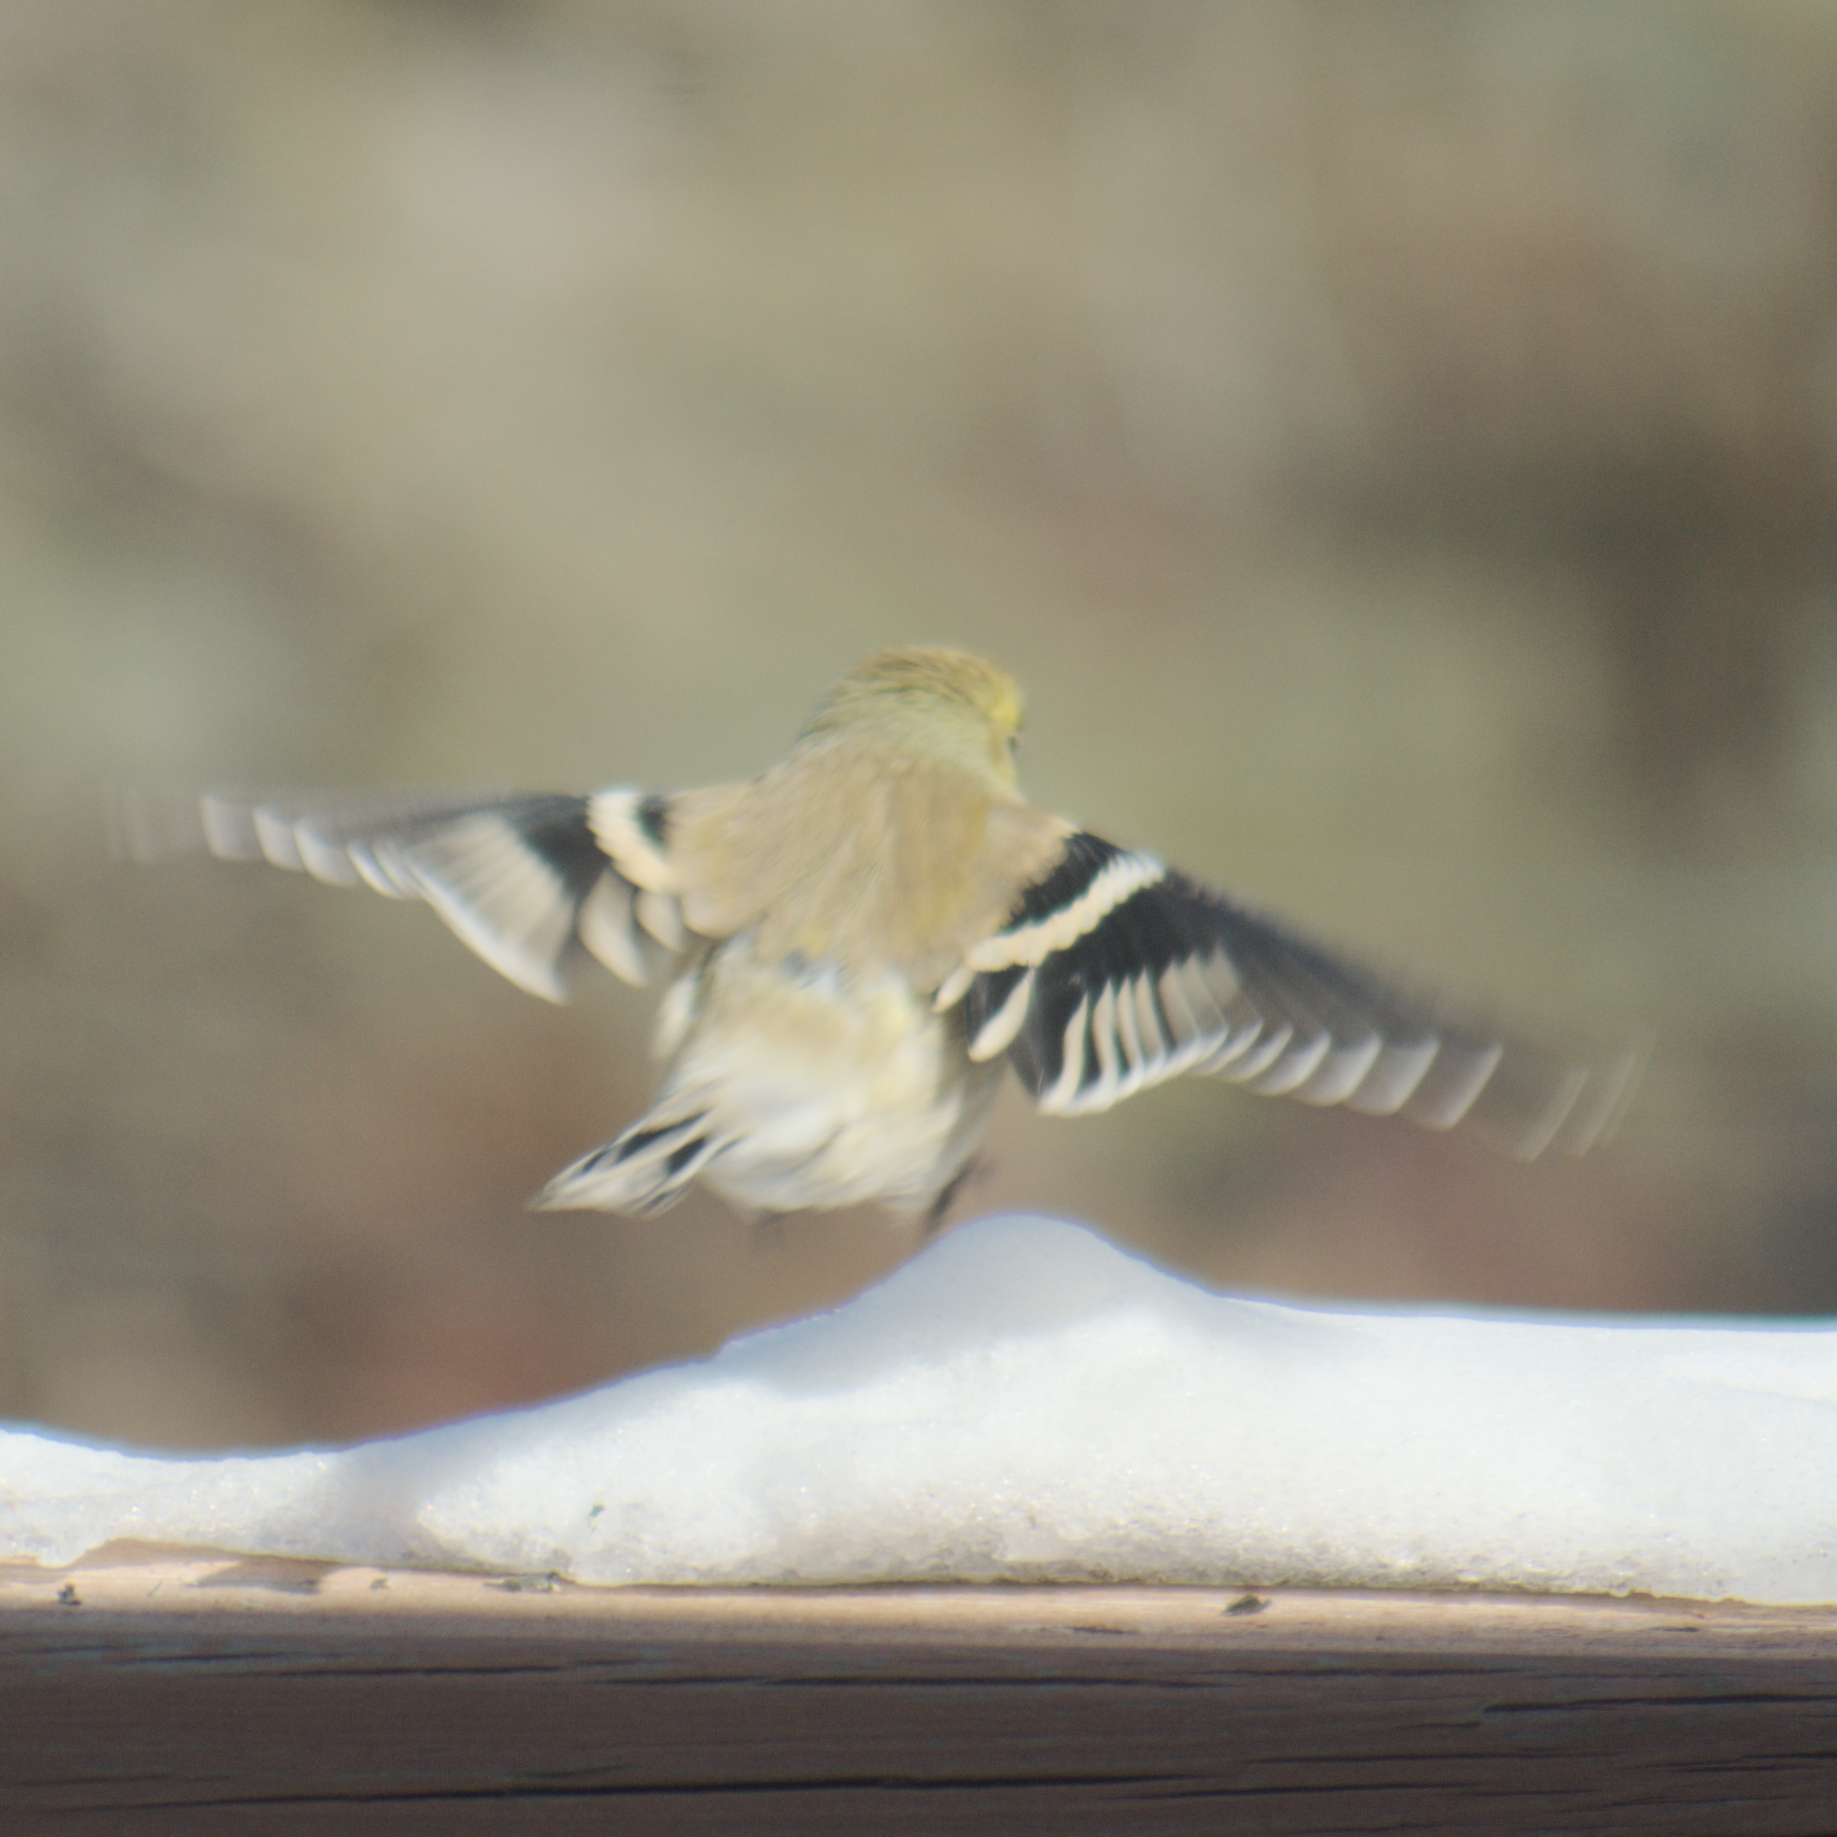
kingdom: Animalia
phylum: Chordata
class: Aves
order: Passeriformes
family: Fringillidae
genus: Spinus
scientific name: Spinus tristis
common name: American goldfinch
